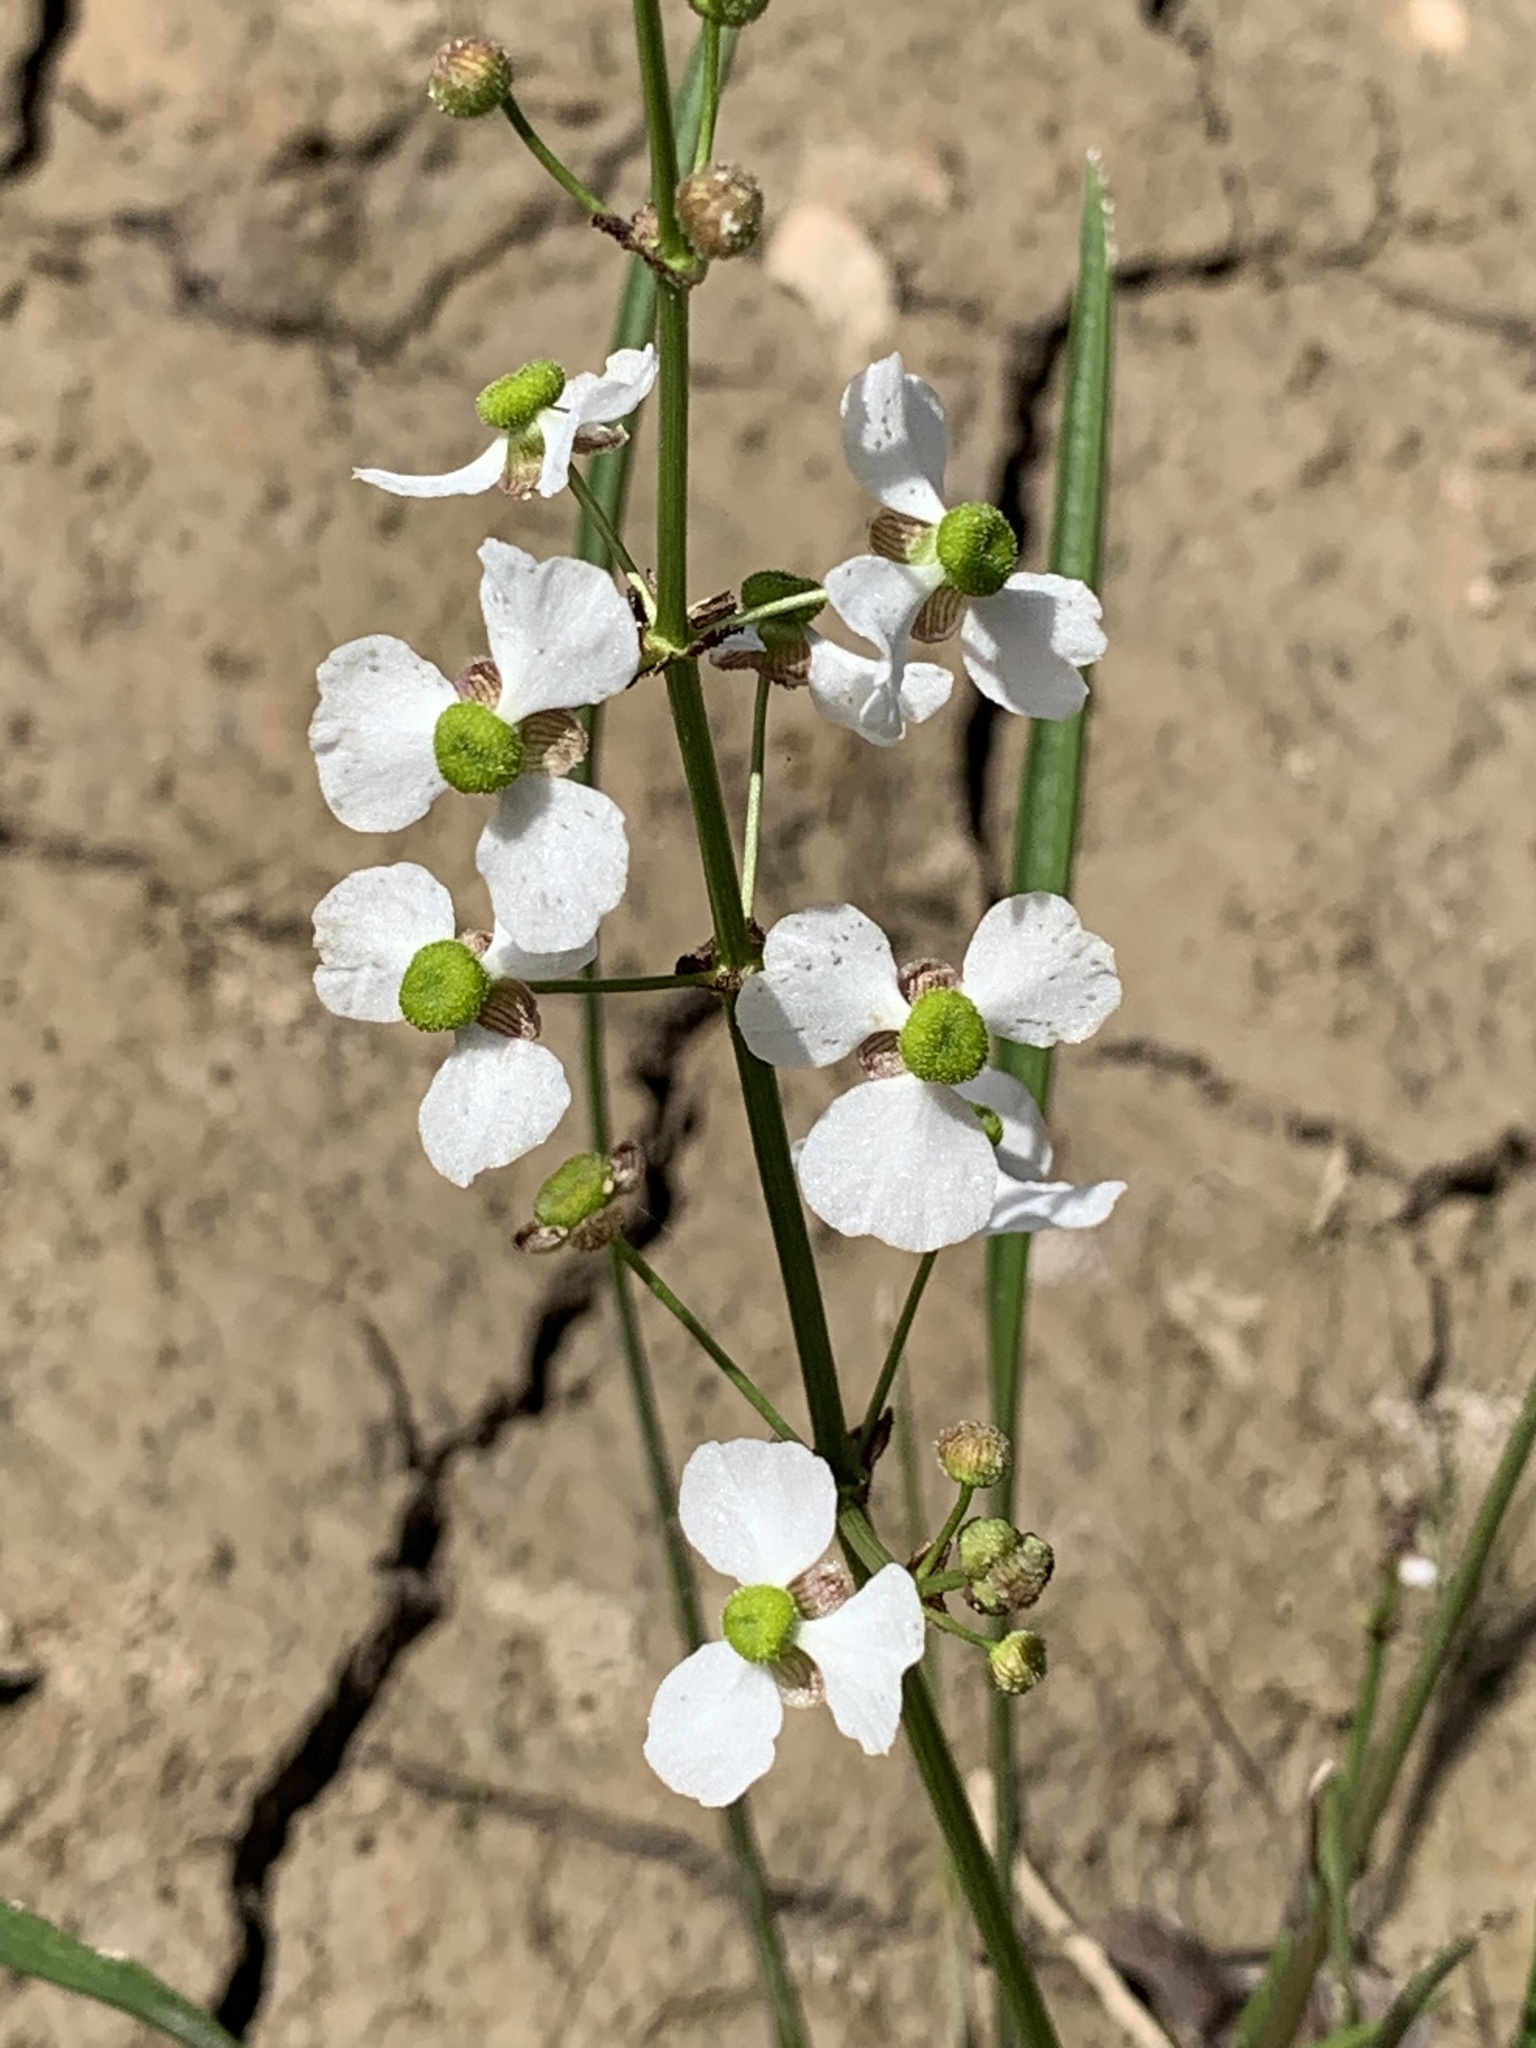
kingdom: Plantae
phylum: Tracheophyta
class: Liliopsida
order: Alismatales
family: Alismataceae
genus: Sagittaria
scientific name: Sagittaria papillosa
